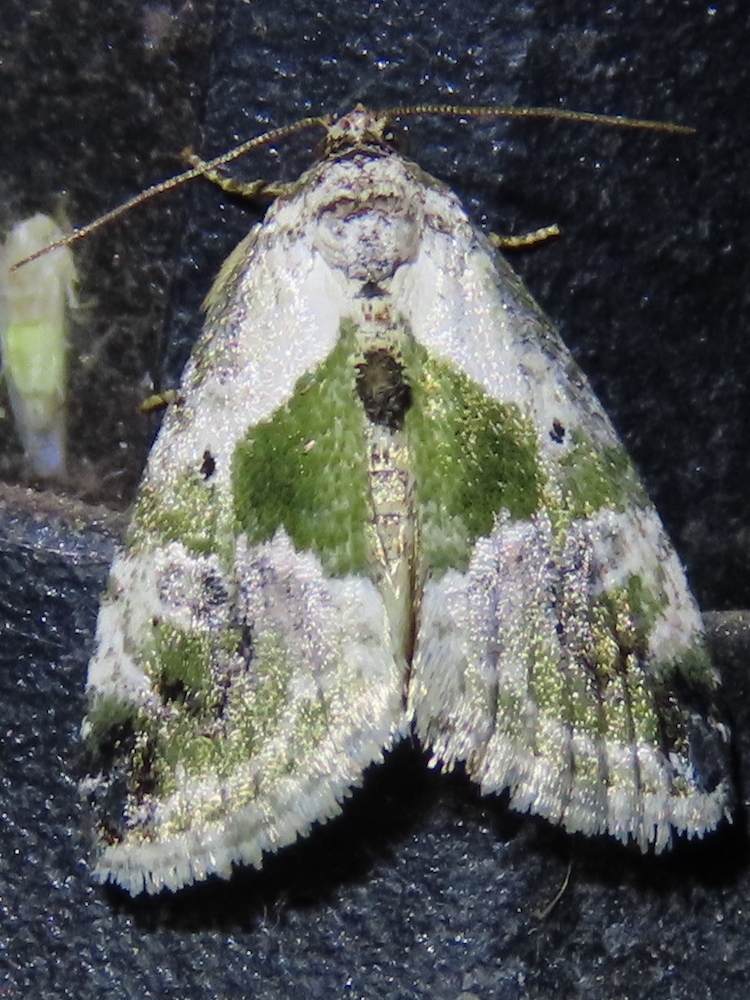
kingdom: Animalia
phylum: Arthropoda
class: Insecta
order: Lepidoptera
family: Noctuidae
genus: Maliattha
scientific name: Maliattha synochitis
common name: Black-dotted glyph
